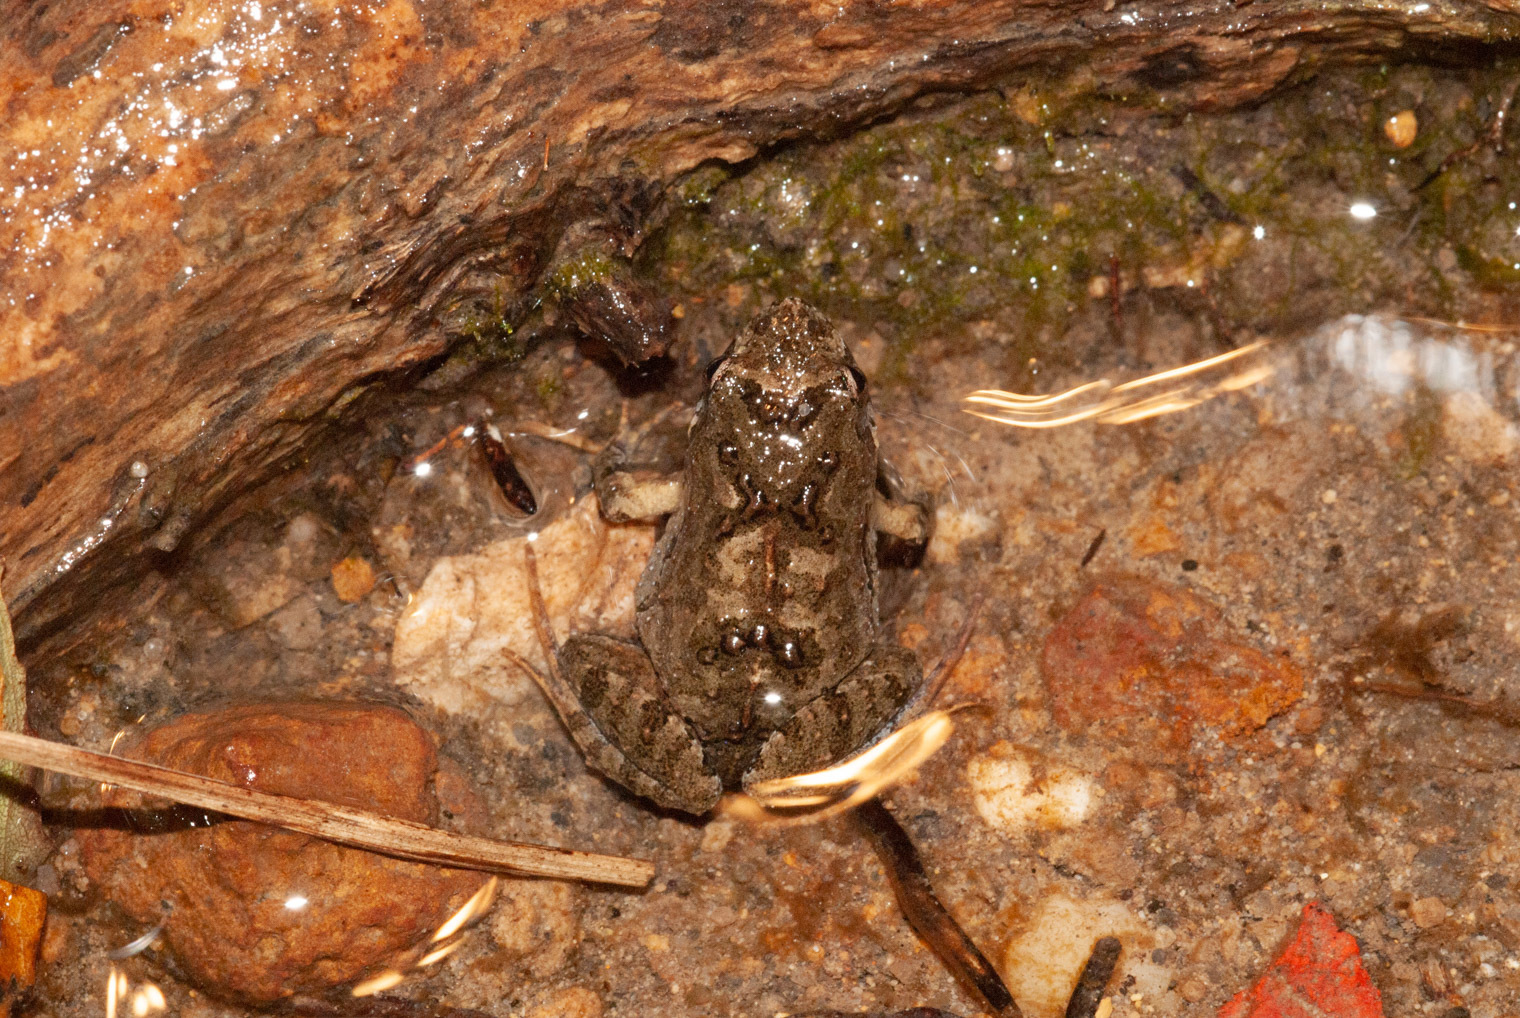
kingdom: Animalia
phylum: Chordata
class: Amphibia
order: Anura
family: Myobatrachidae
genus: Crinia
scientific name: Crinia signifera
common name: Brown froglet
